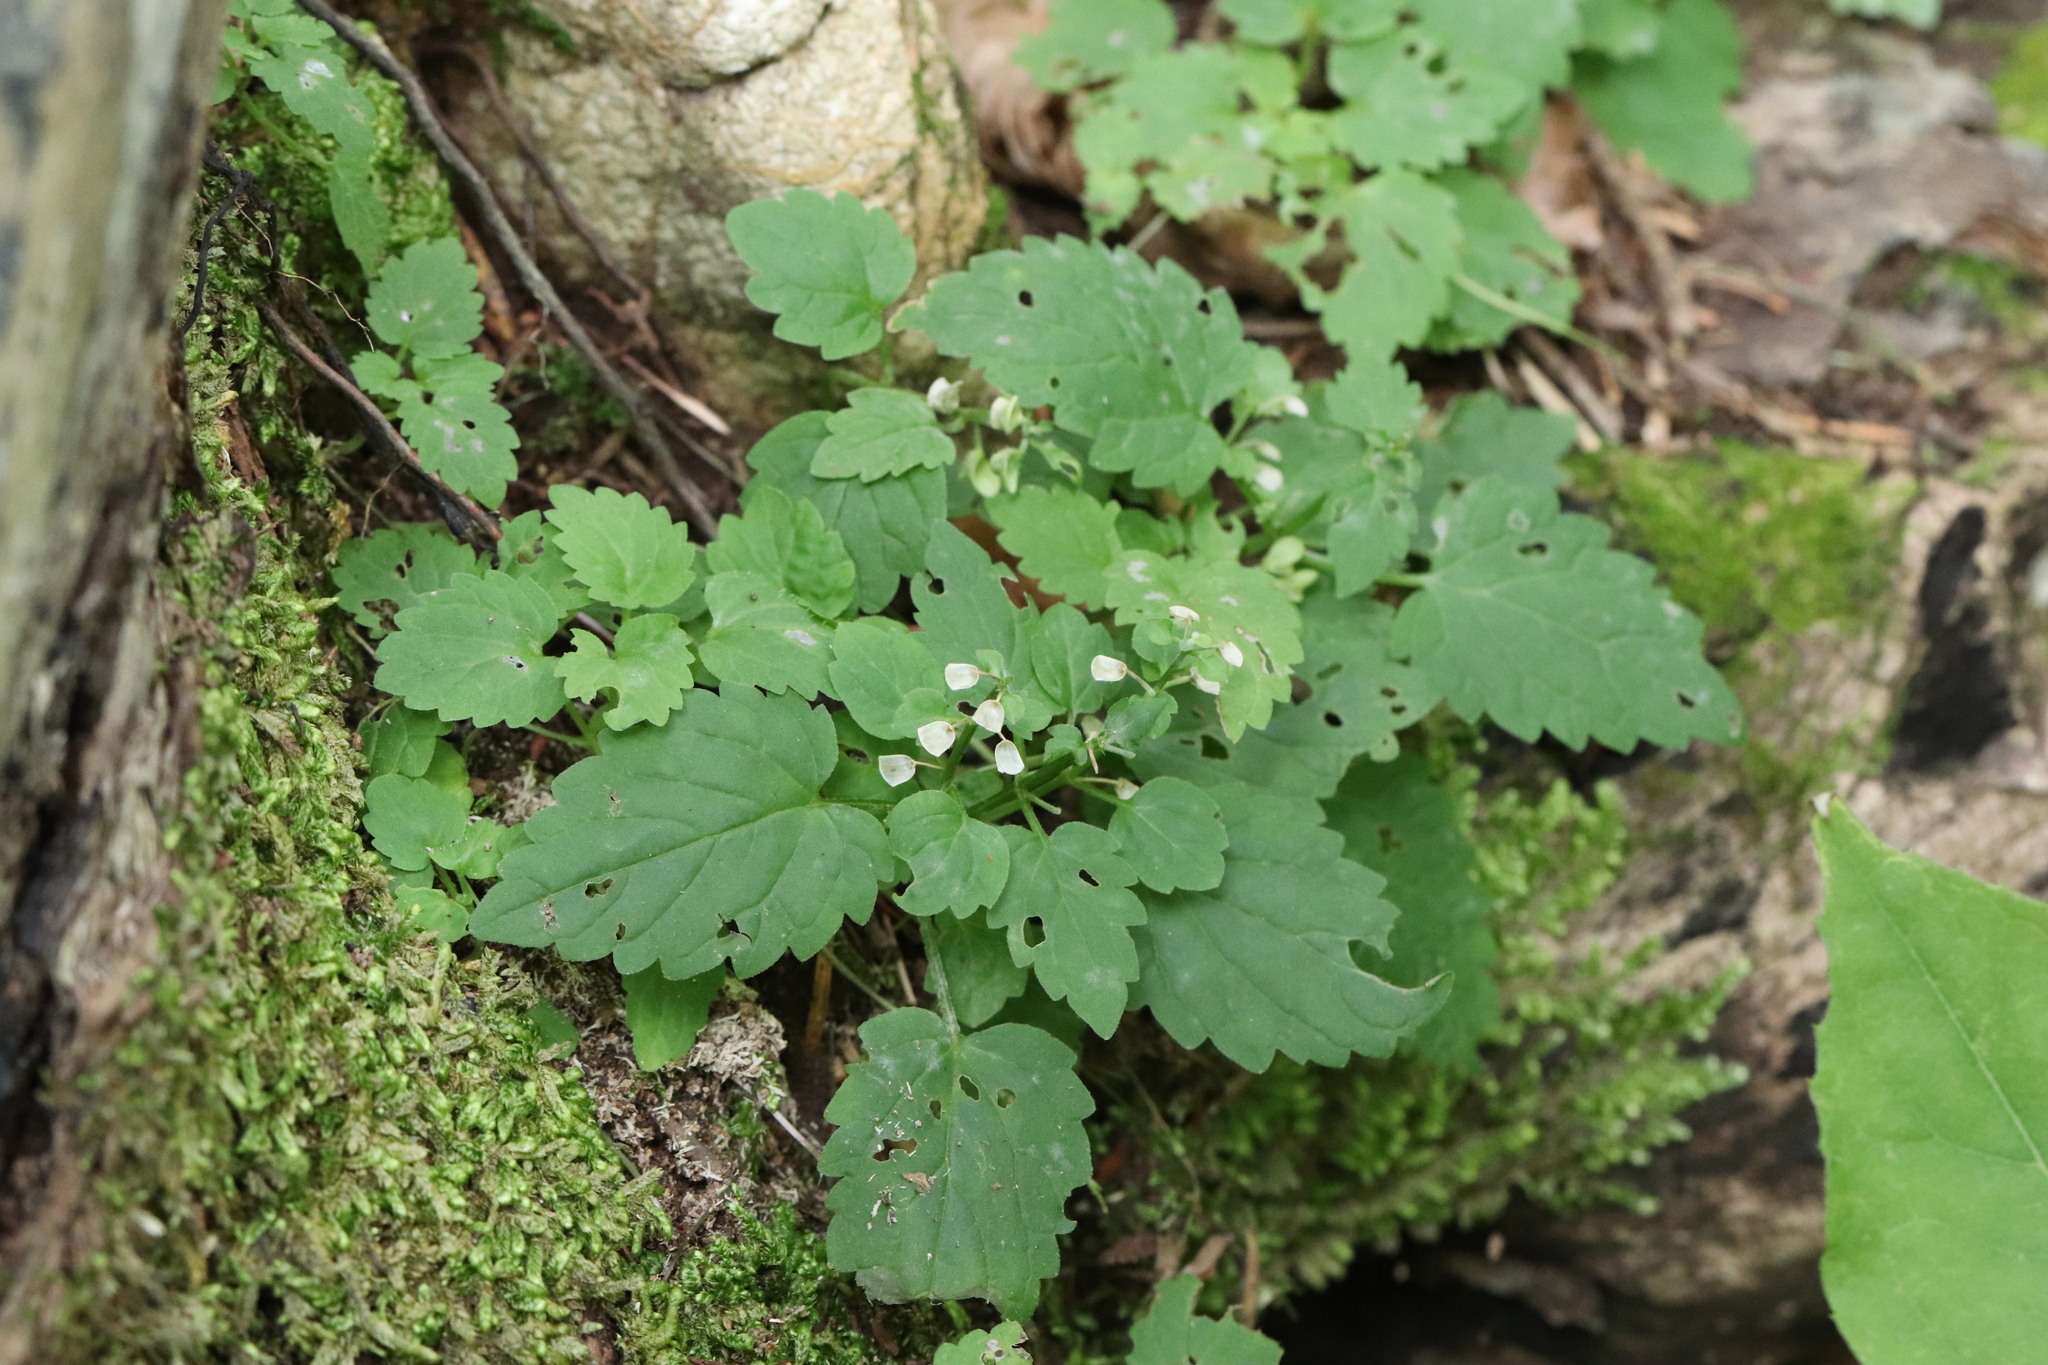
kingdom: Plantae
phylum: Tracheophyta
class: Magnoliopsida
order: Lamiales
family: Lamiaceae
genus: Scutellaria
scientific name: Scutellaria pekinensis
